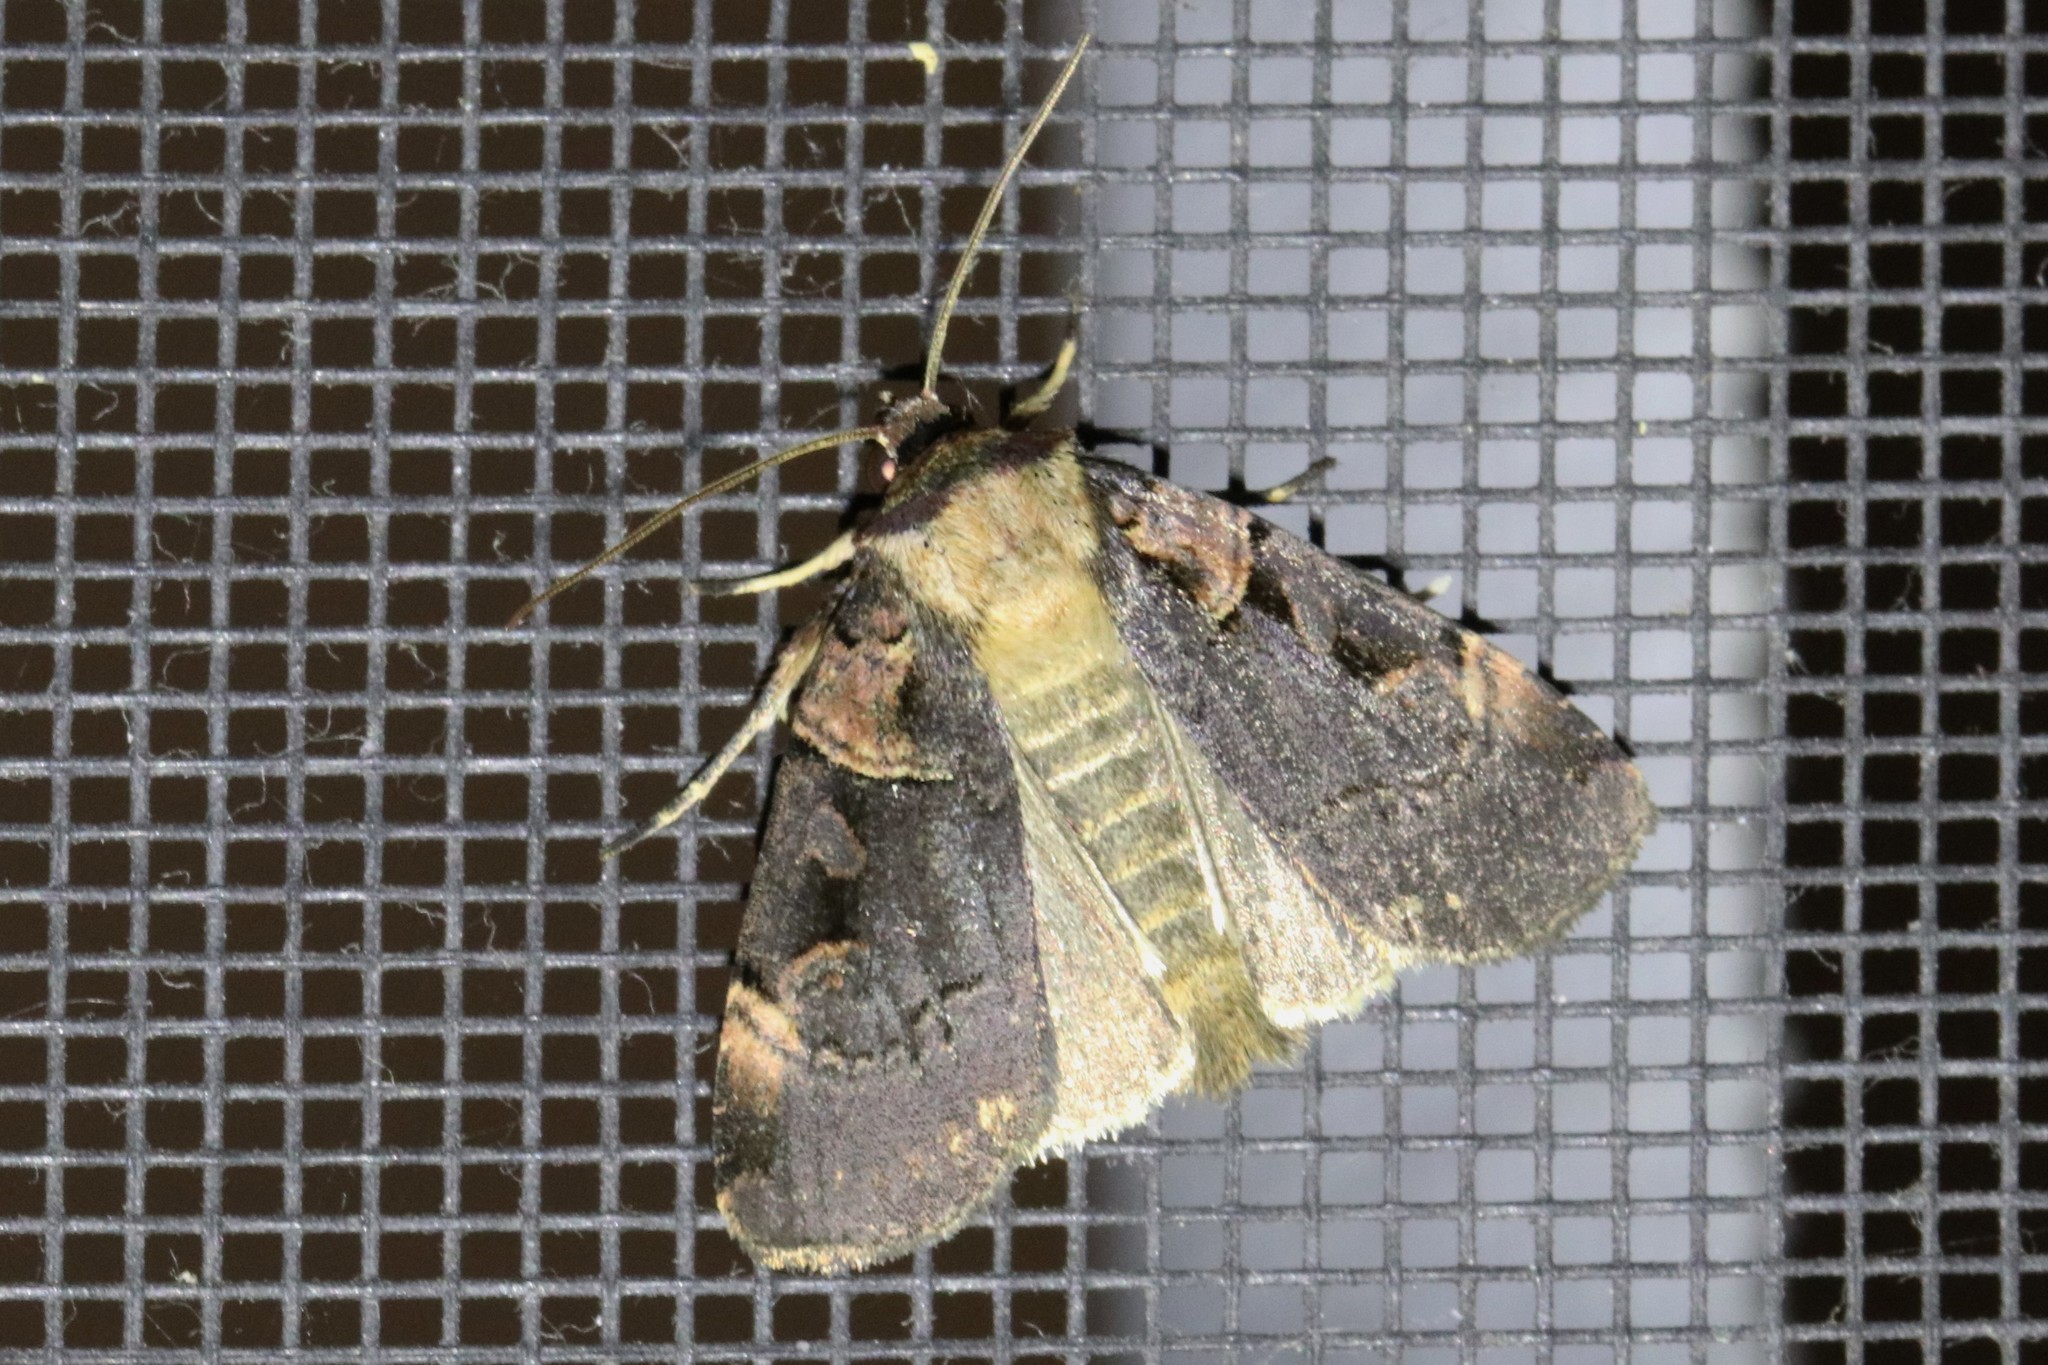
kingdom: Animalia
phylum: Arthropoda
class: Insecta
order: Lepidoptera
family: Noctuidae
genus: Pseudohermonassa
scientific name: Pseudohermonassa bicarnea
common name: Pink spotted dart
